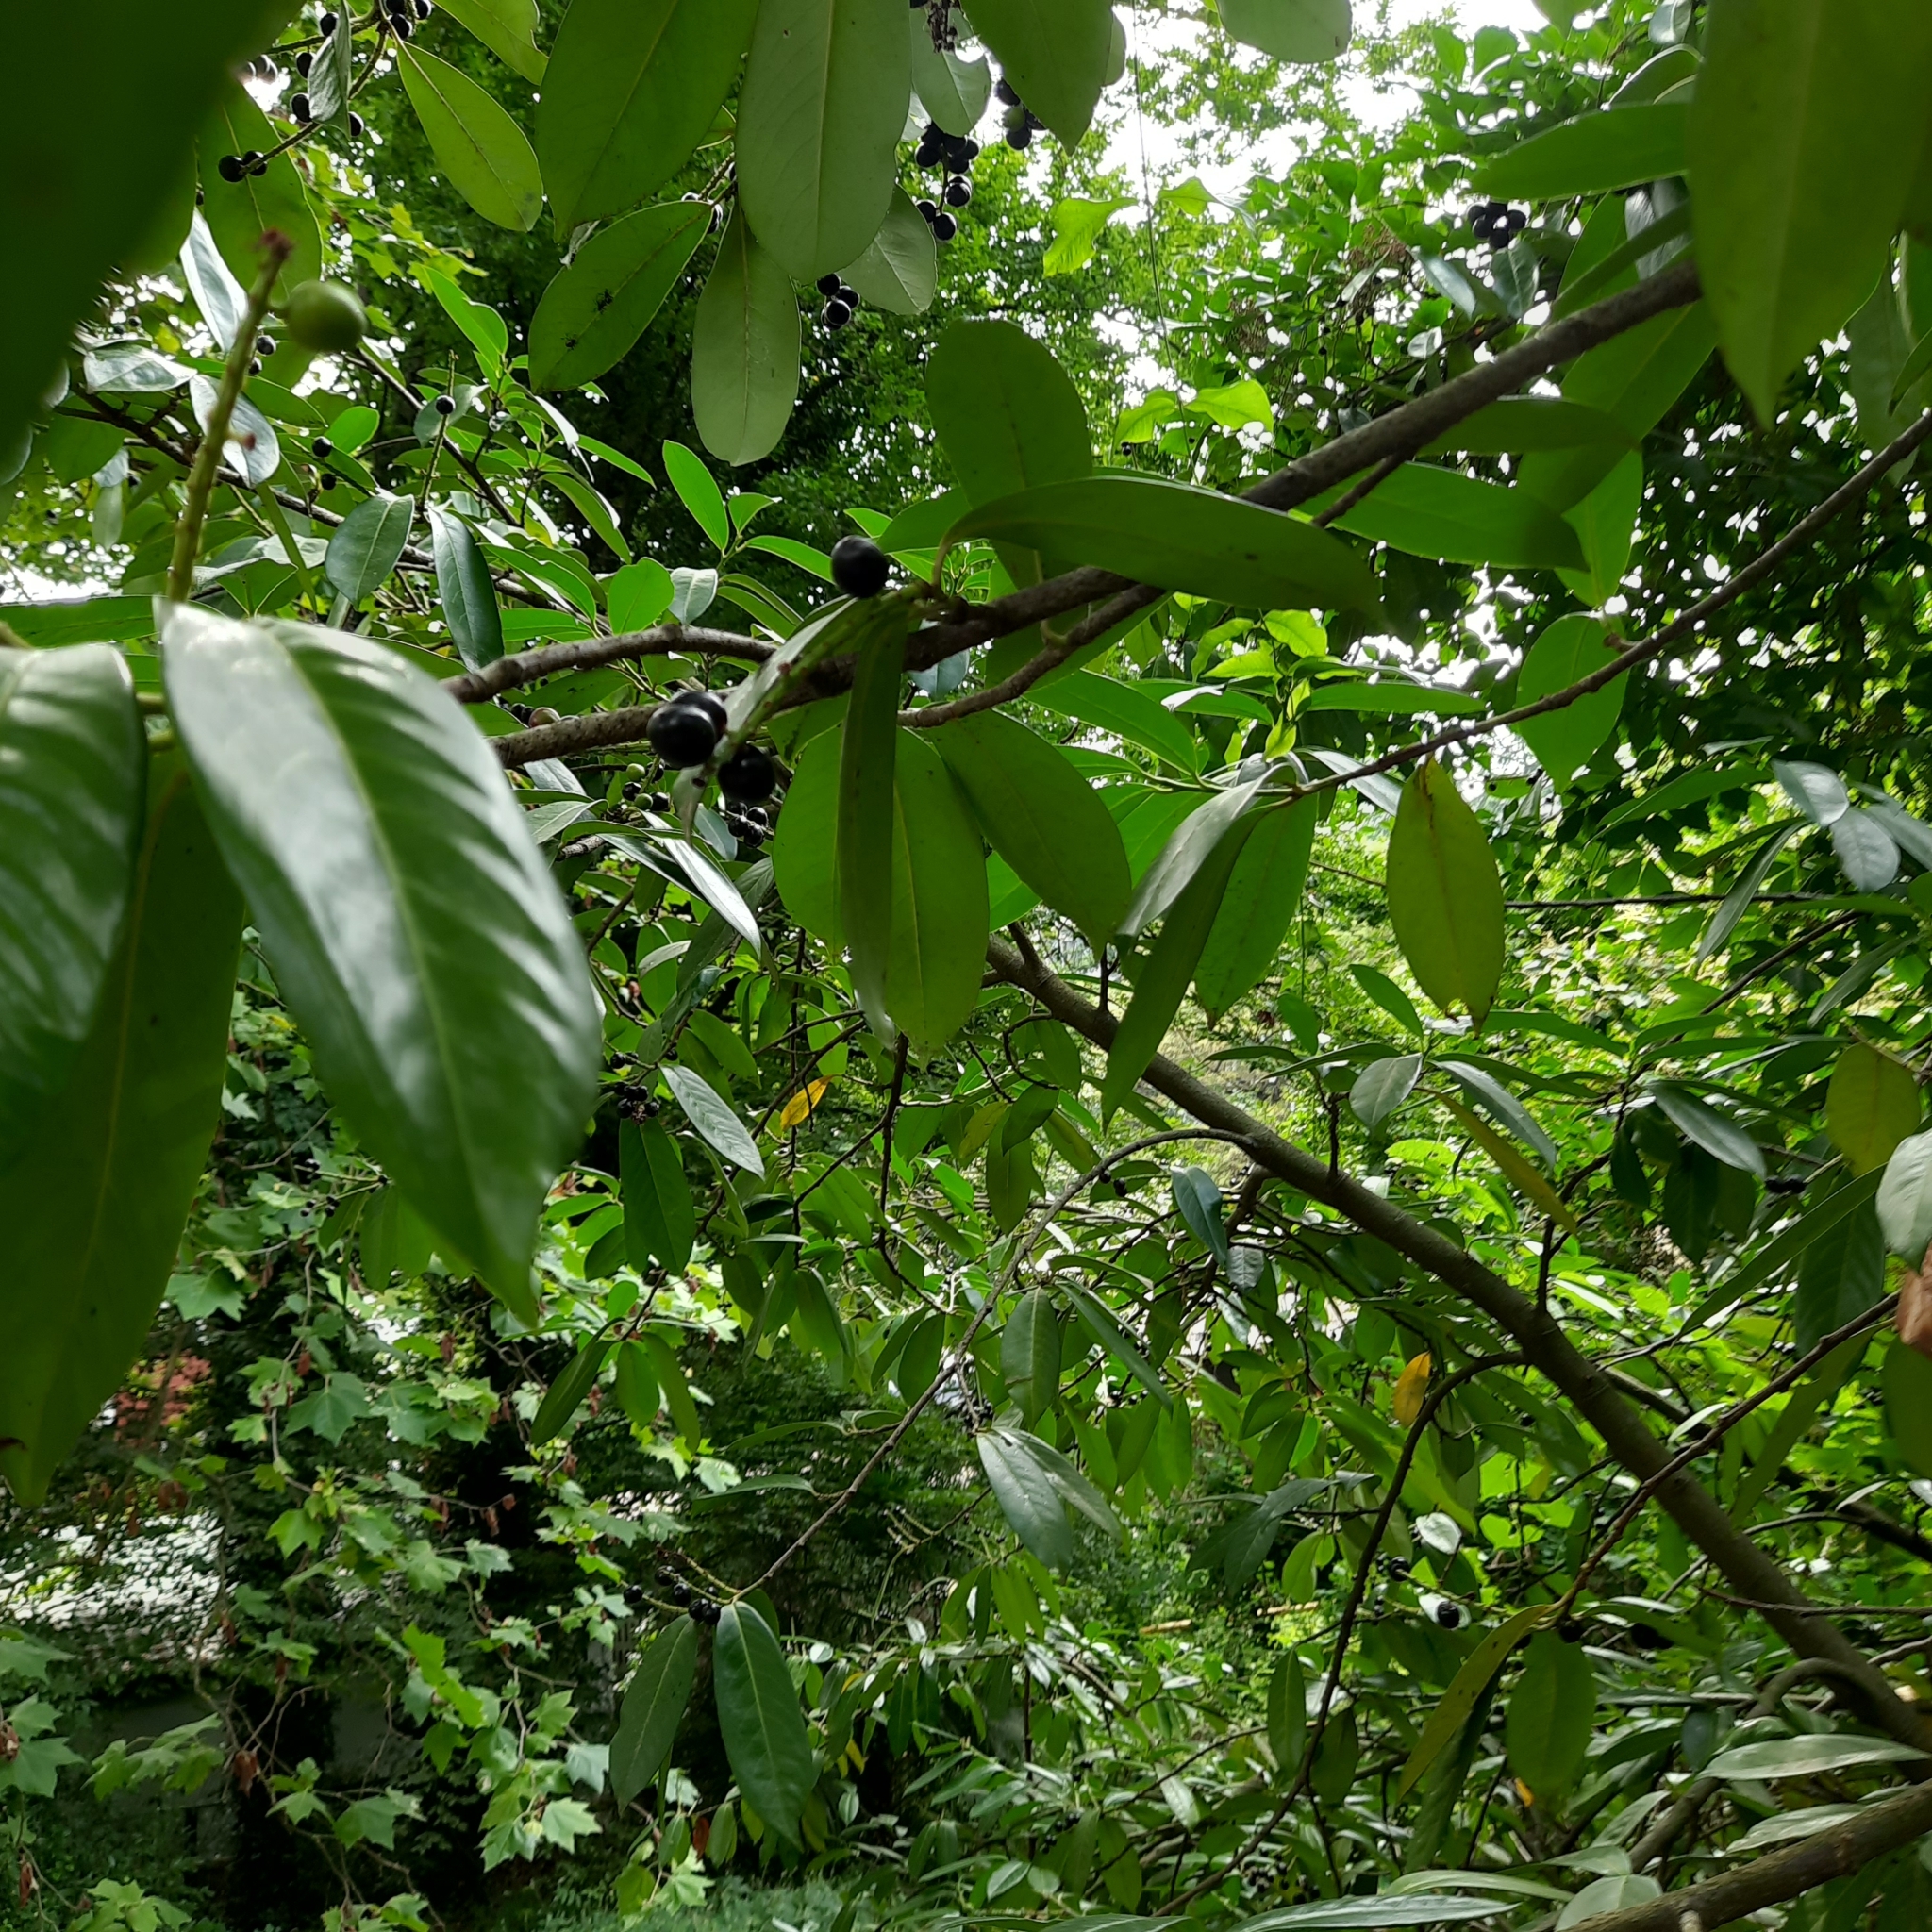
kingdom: Plantae
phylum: Tracheophyta
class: Magnoliopsida
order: Rosales
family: Rosaceae
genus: Prunus
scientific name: Prunus laurocerasus
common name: Cherry laurel
